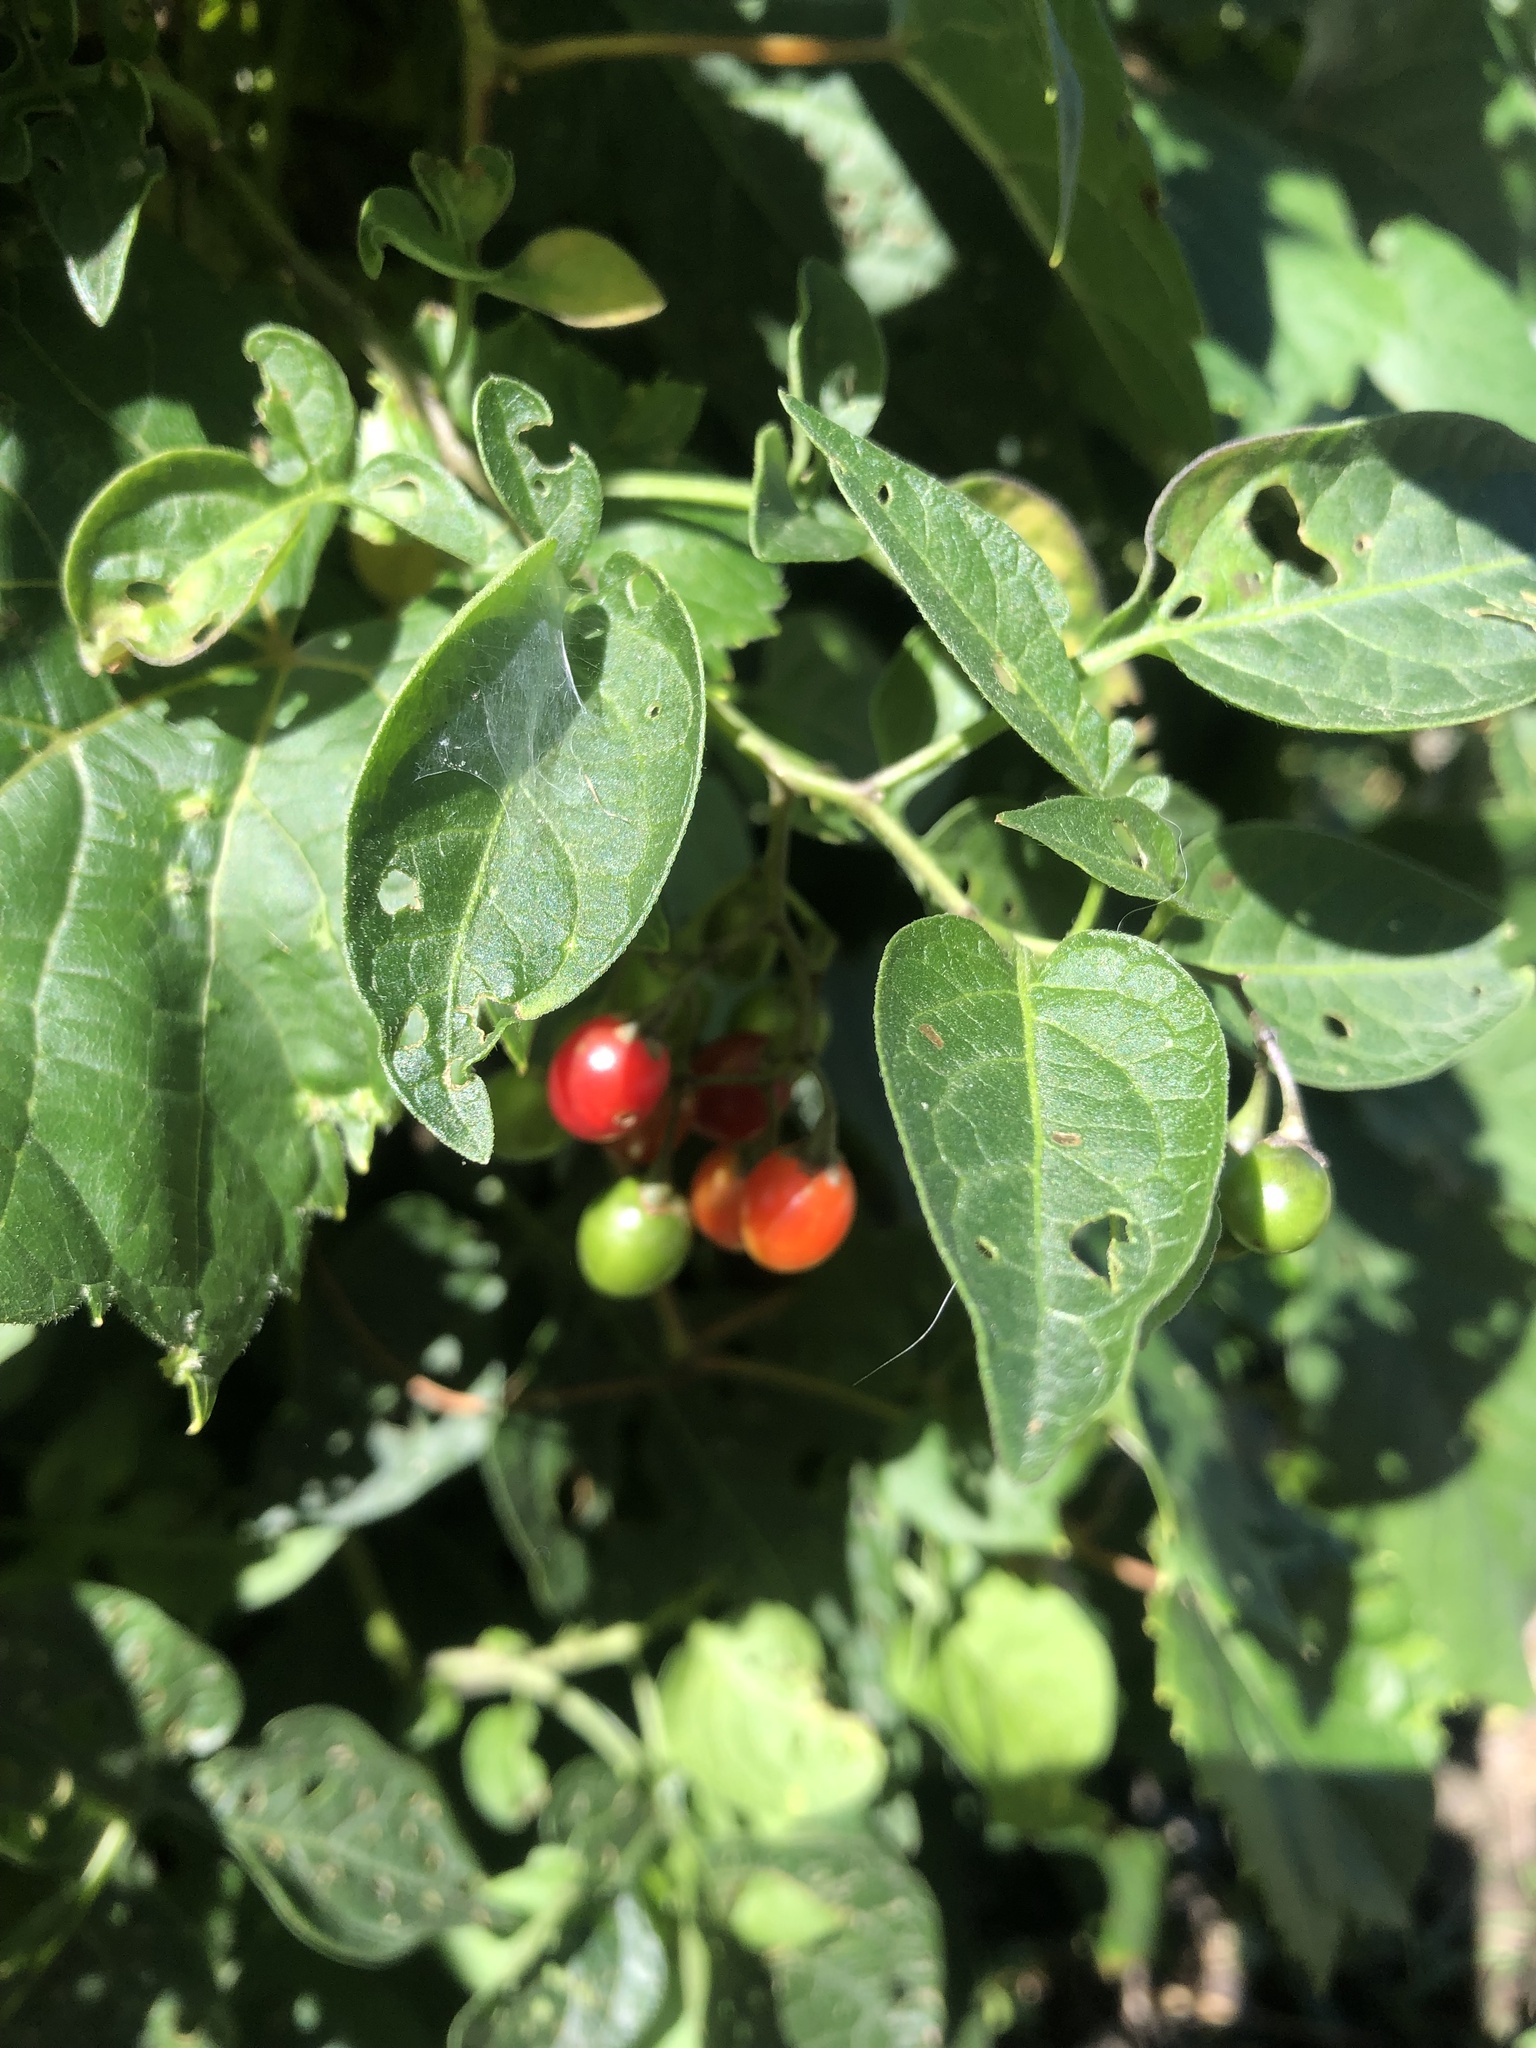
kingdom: Plantae
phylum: Tracheophyta
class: Magnoliopsida
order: Solanales
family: Solanaceae
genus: Solanum
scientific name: Solanum dulcamara
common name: Climbing nightshade
